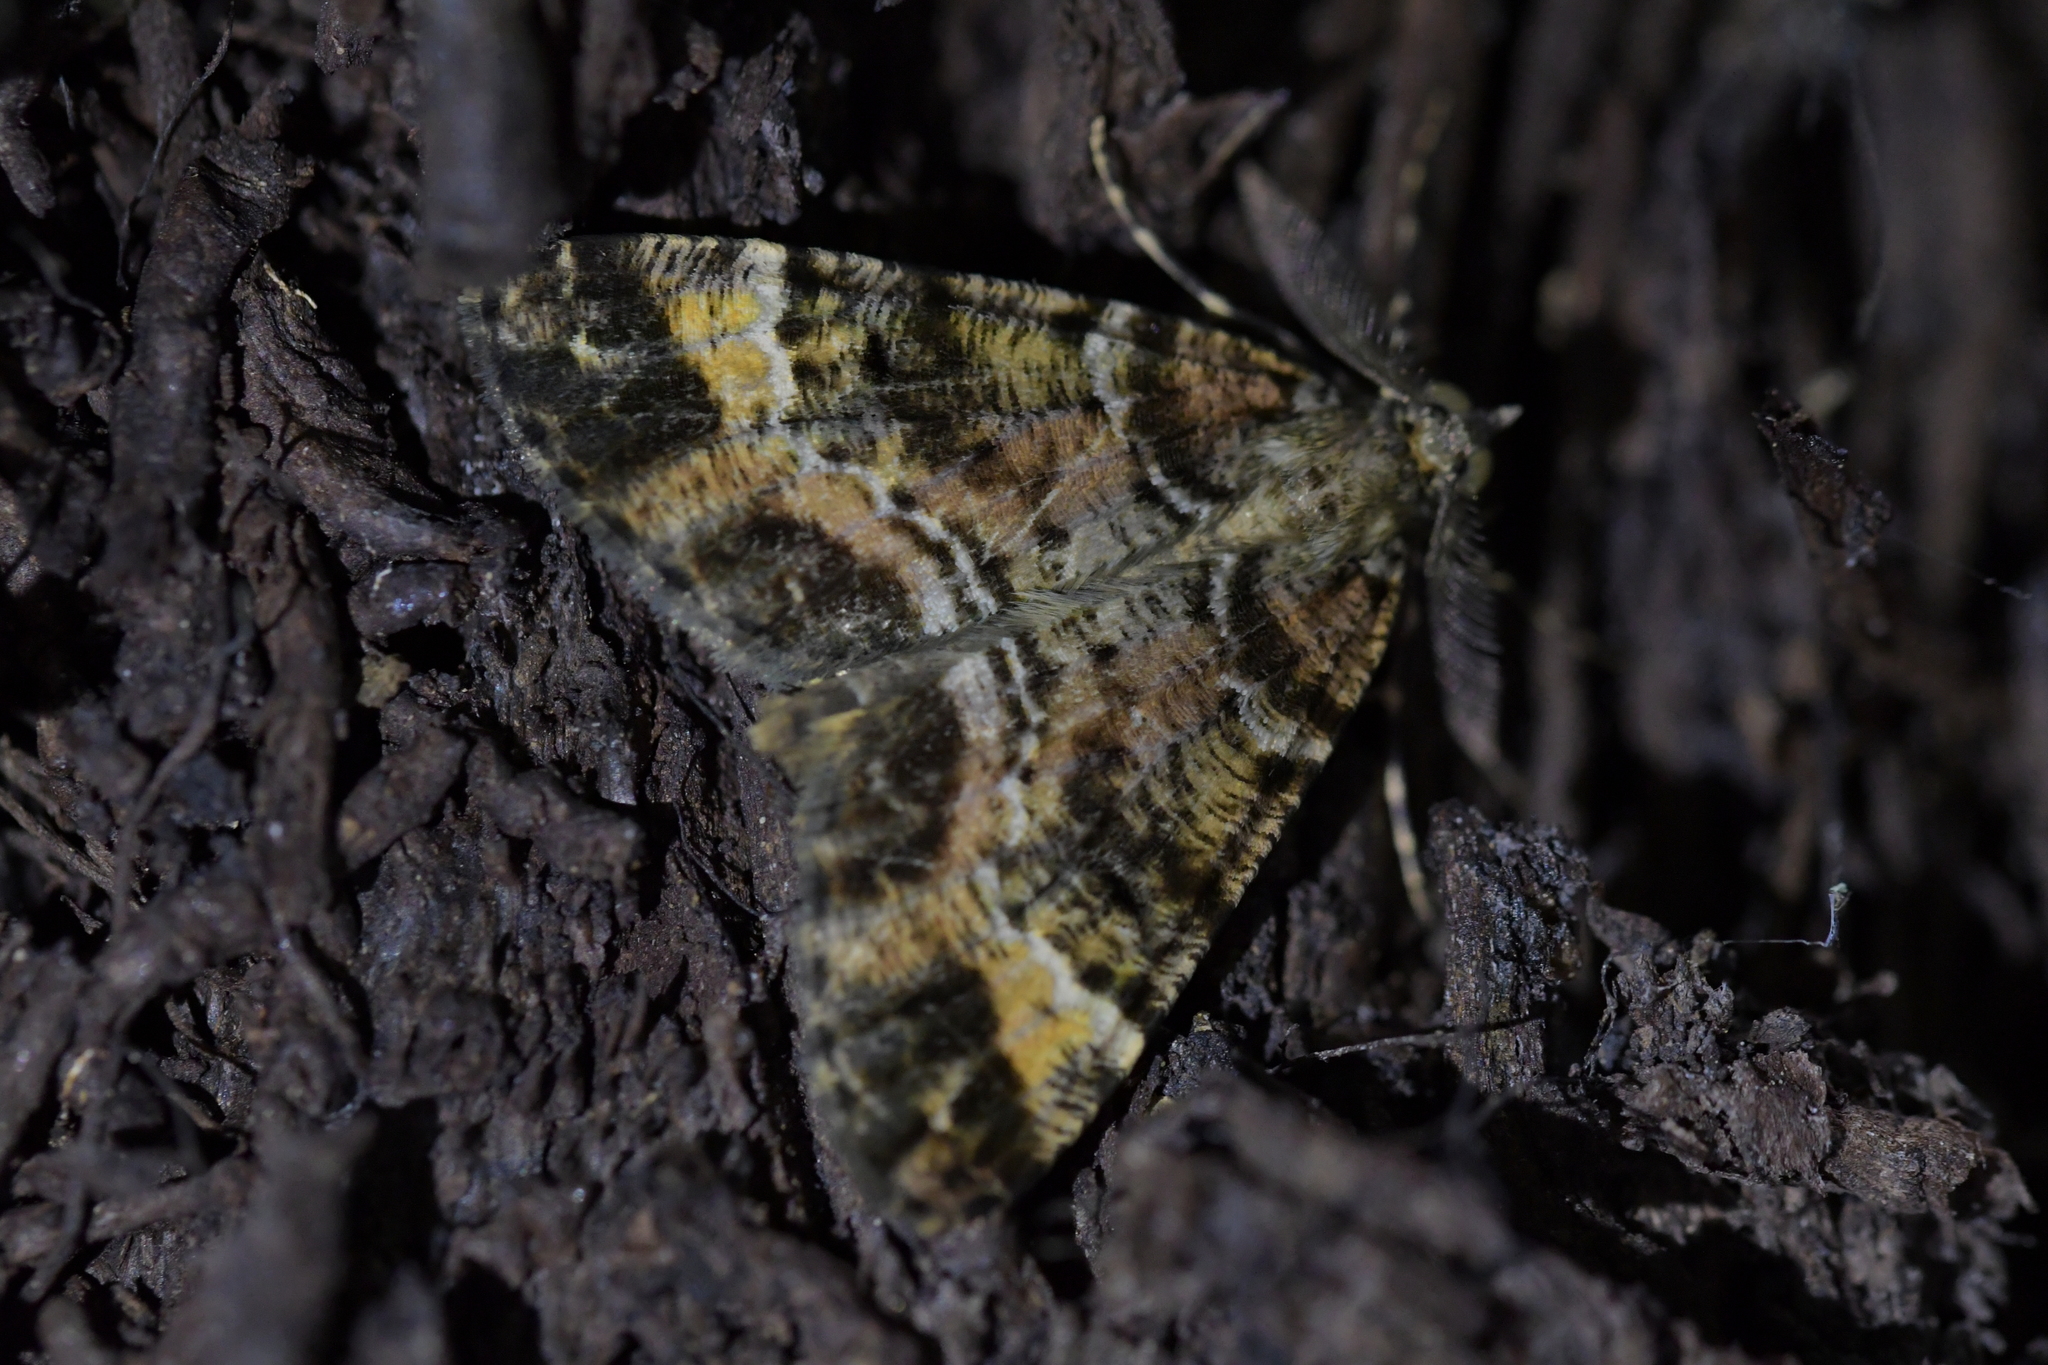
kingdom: Animalia
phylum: Arthropoda
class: Insecta
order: Lepidoptera
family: Geometridae
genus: Pseudocoremia
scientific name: Pseudocoremia productata
